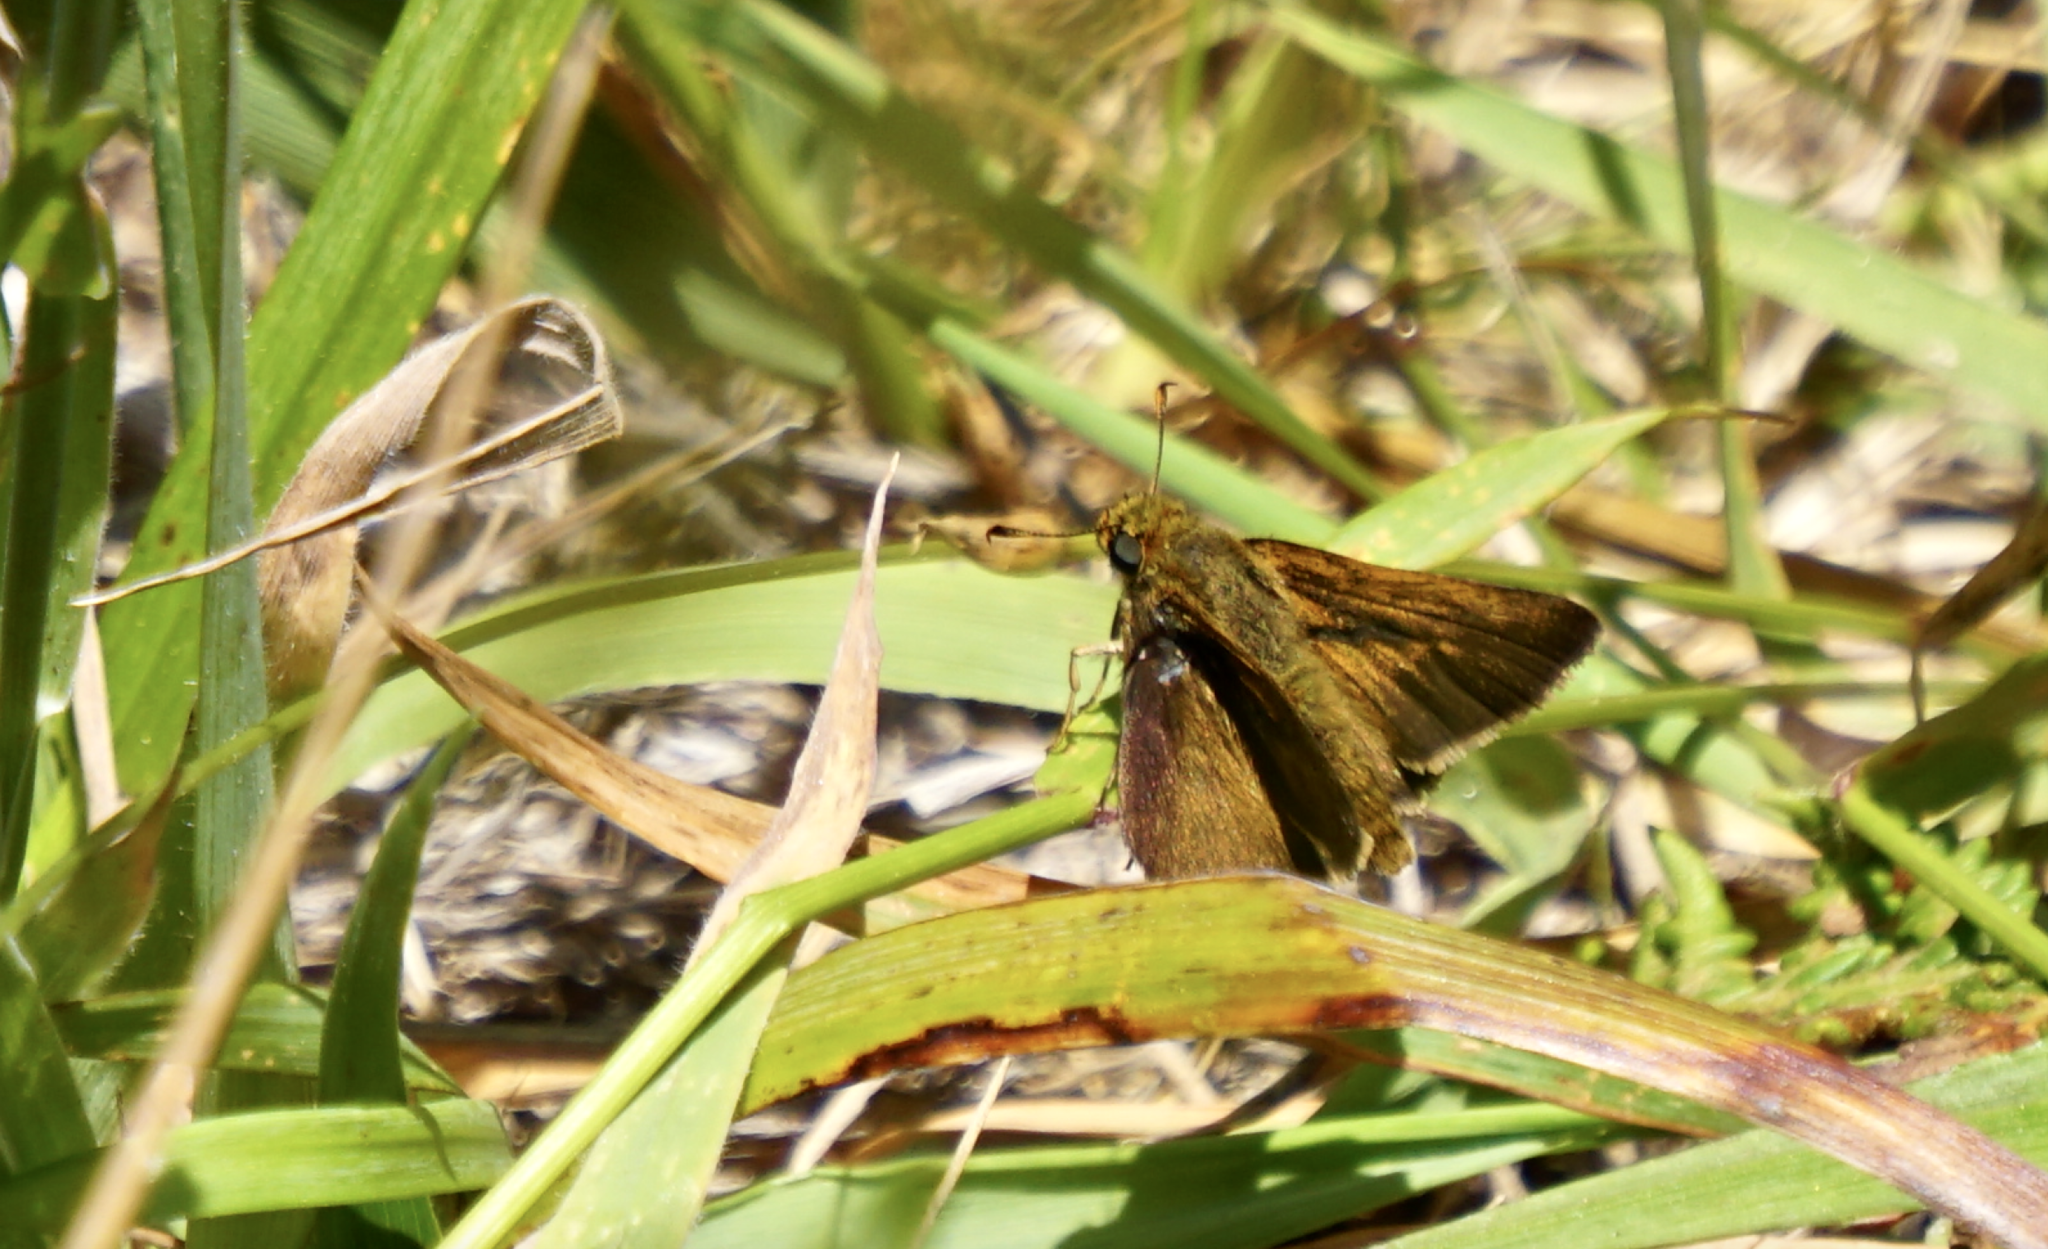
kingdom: Animalia
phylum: Arthropoda
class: Insecta
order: Lepidoptera
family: Hesperiidae
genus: Euphyes
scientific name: Euphyes vestris
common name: Dun skipper
